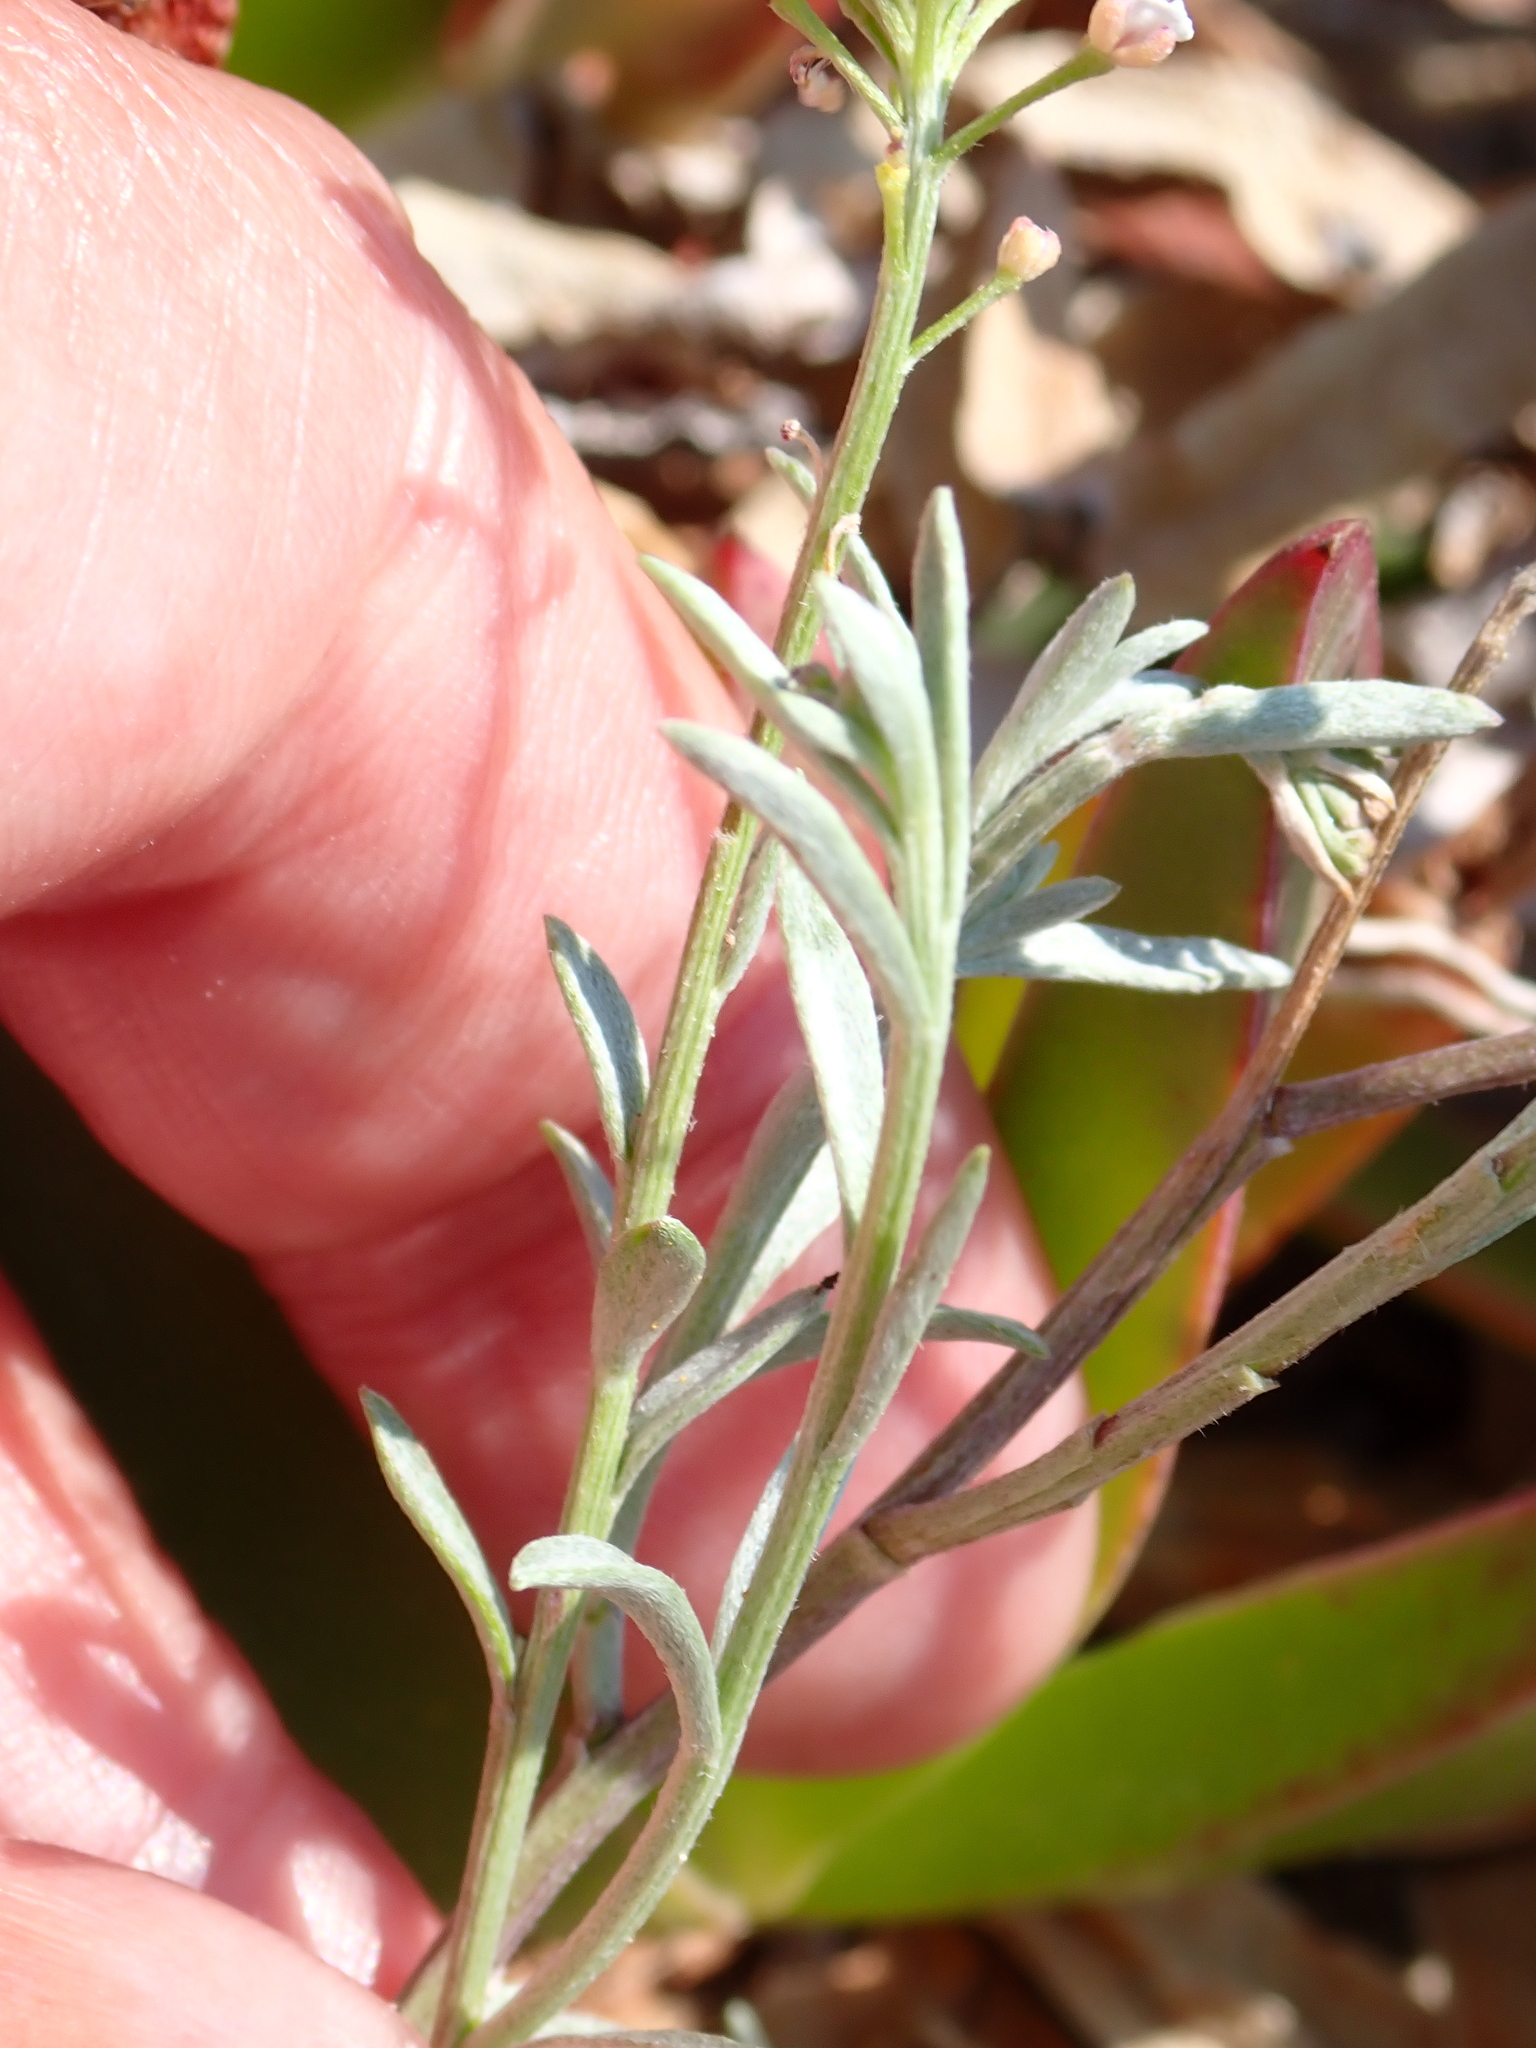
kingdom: Plantae
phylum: Tracheophyta
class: Magnoliopsida
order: Brassicales
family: Brassicaceae
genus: Lobularia
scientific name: Lobularia maritima
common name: Sweet alison
